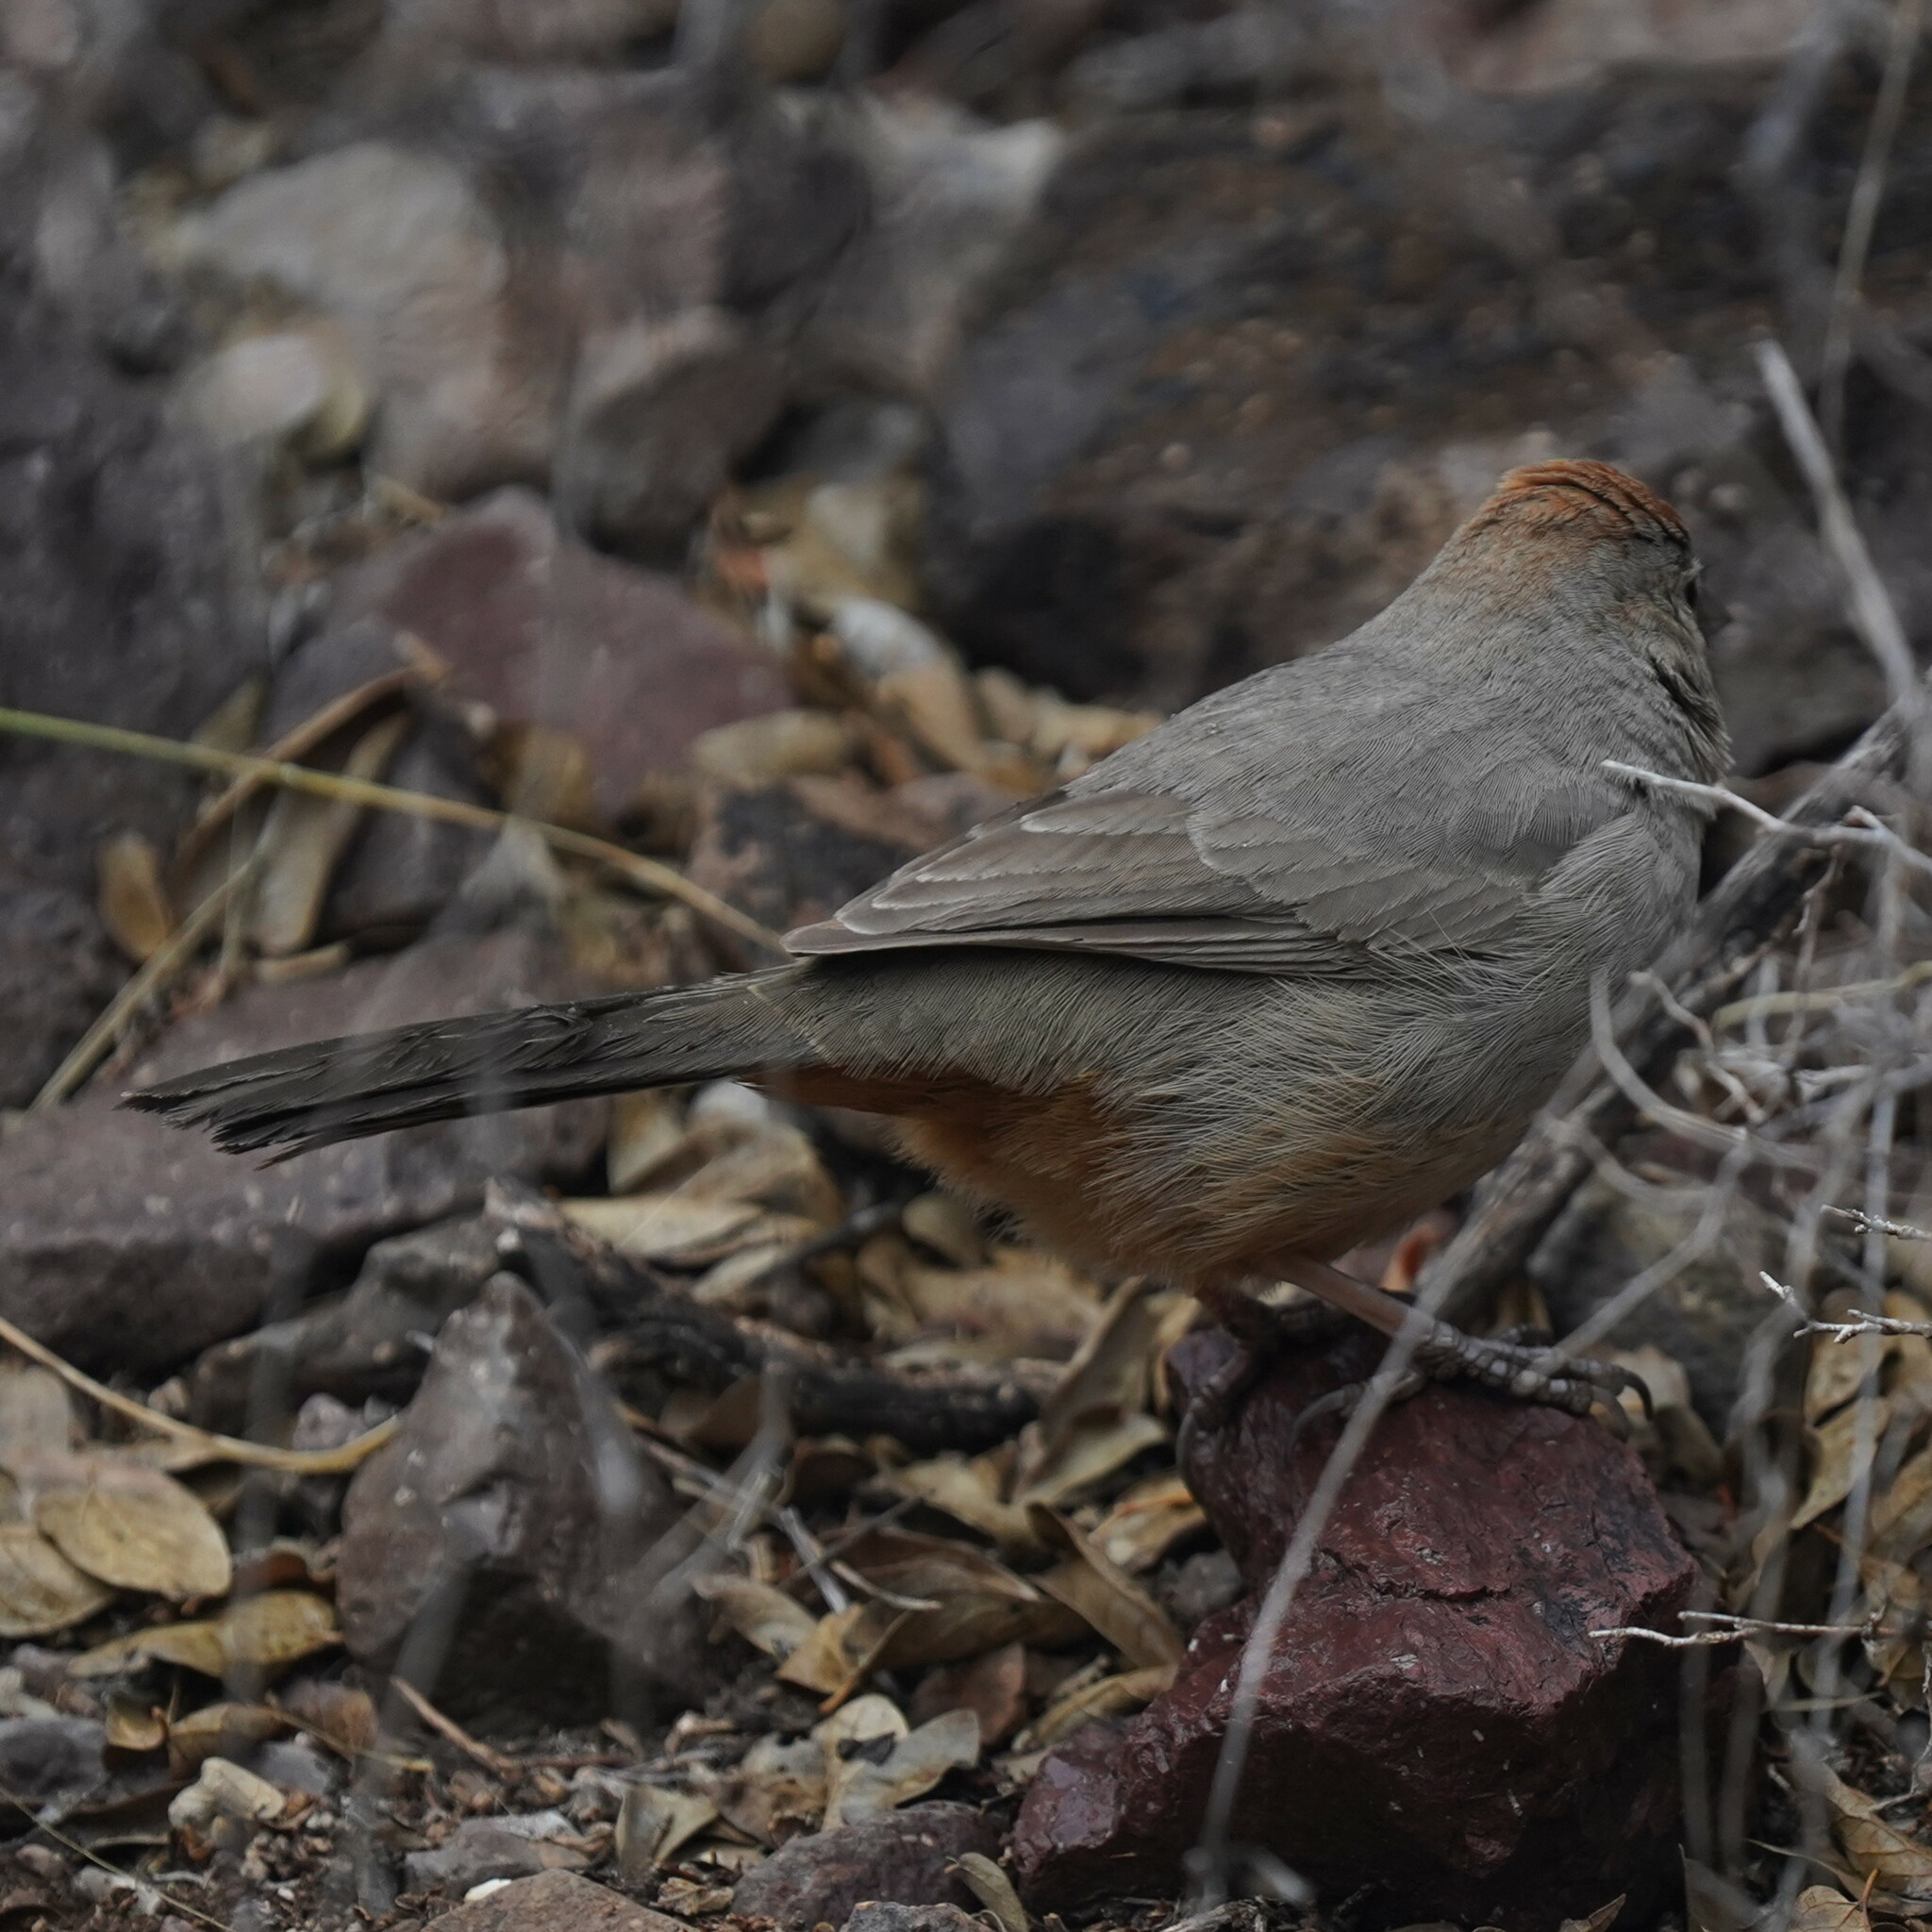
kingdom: Animalia
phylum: Chordata
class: Aves
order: Passeriformes
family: Passerellidae
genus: Melozone
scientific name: Melozone fusca
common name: Canyon towhee
